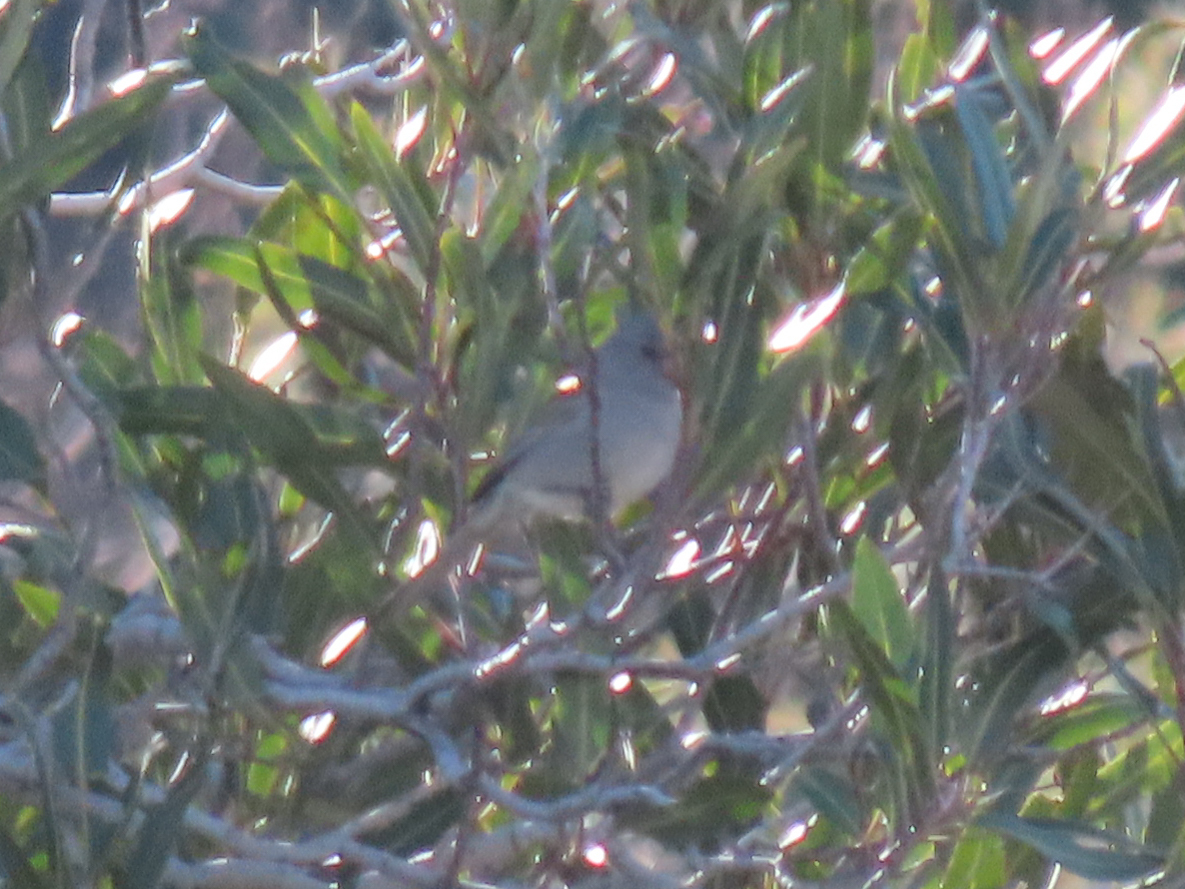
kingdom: Animalia
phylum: Chordata
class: Aves
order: Passeriformes
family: Passerellidae
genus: Spizella
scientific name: Spizella atrogularis
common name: Black-chinned sparrow
